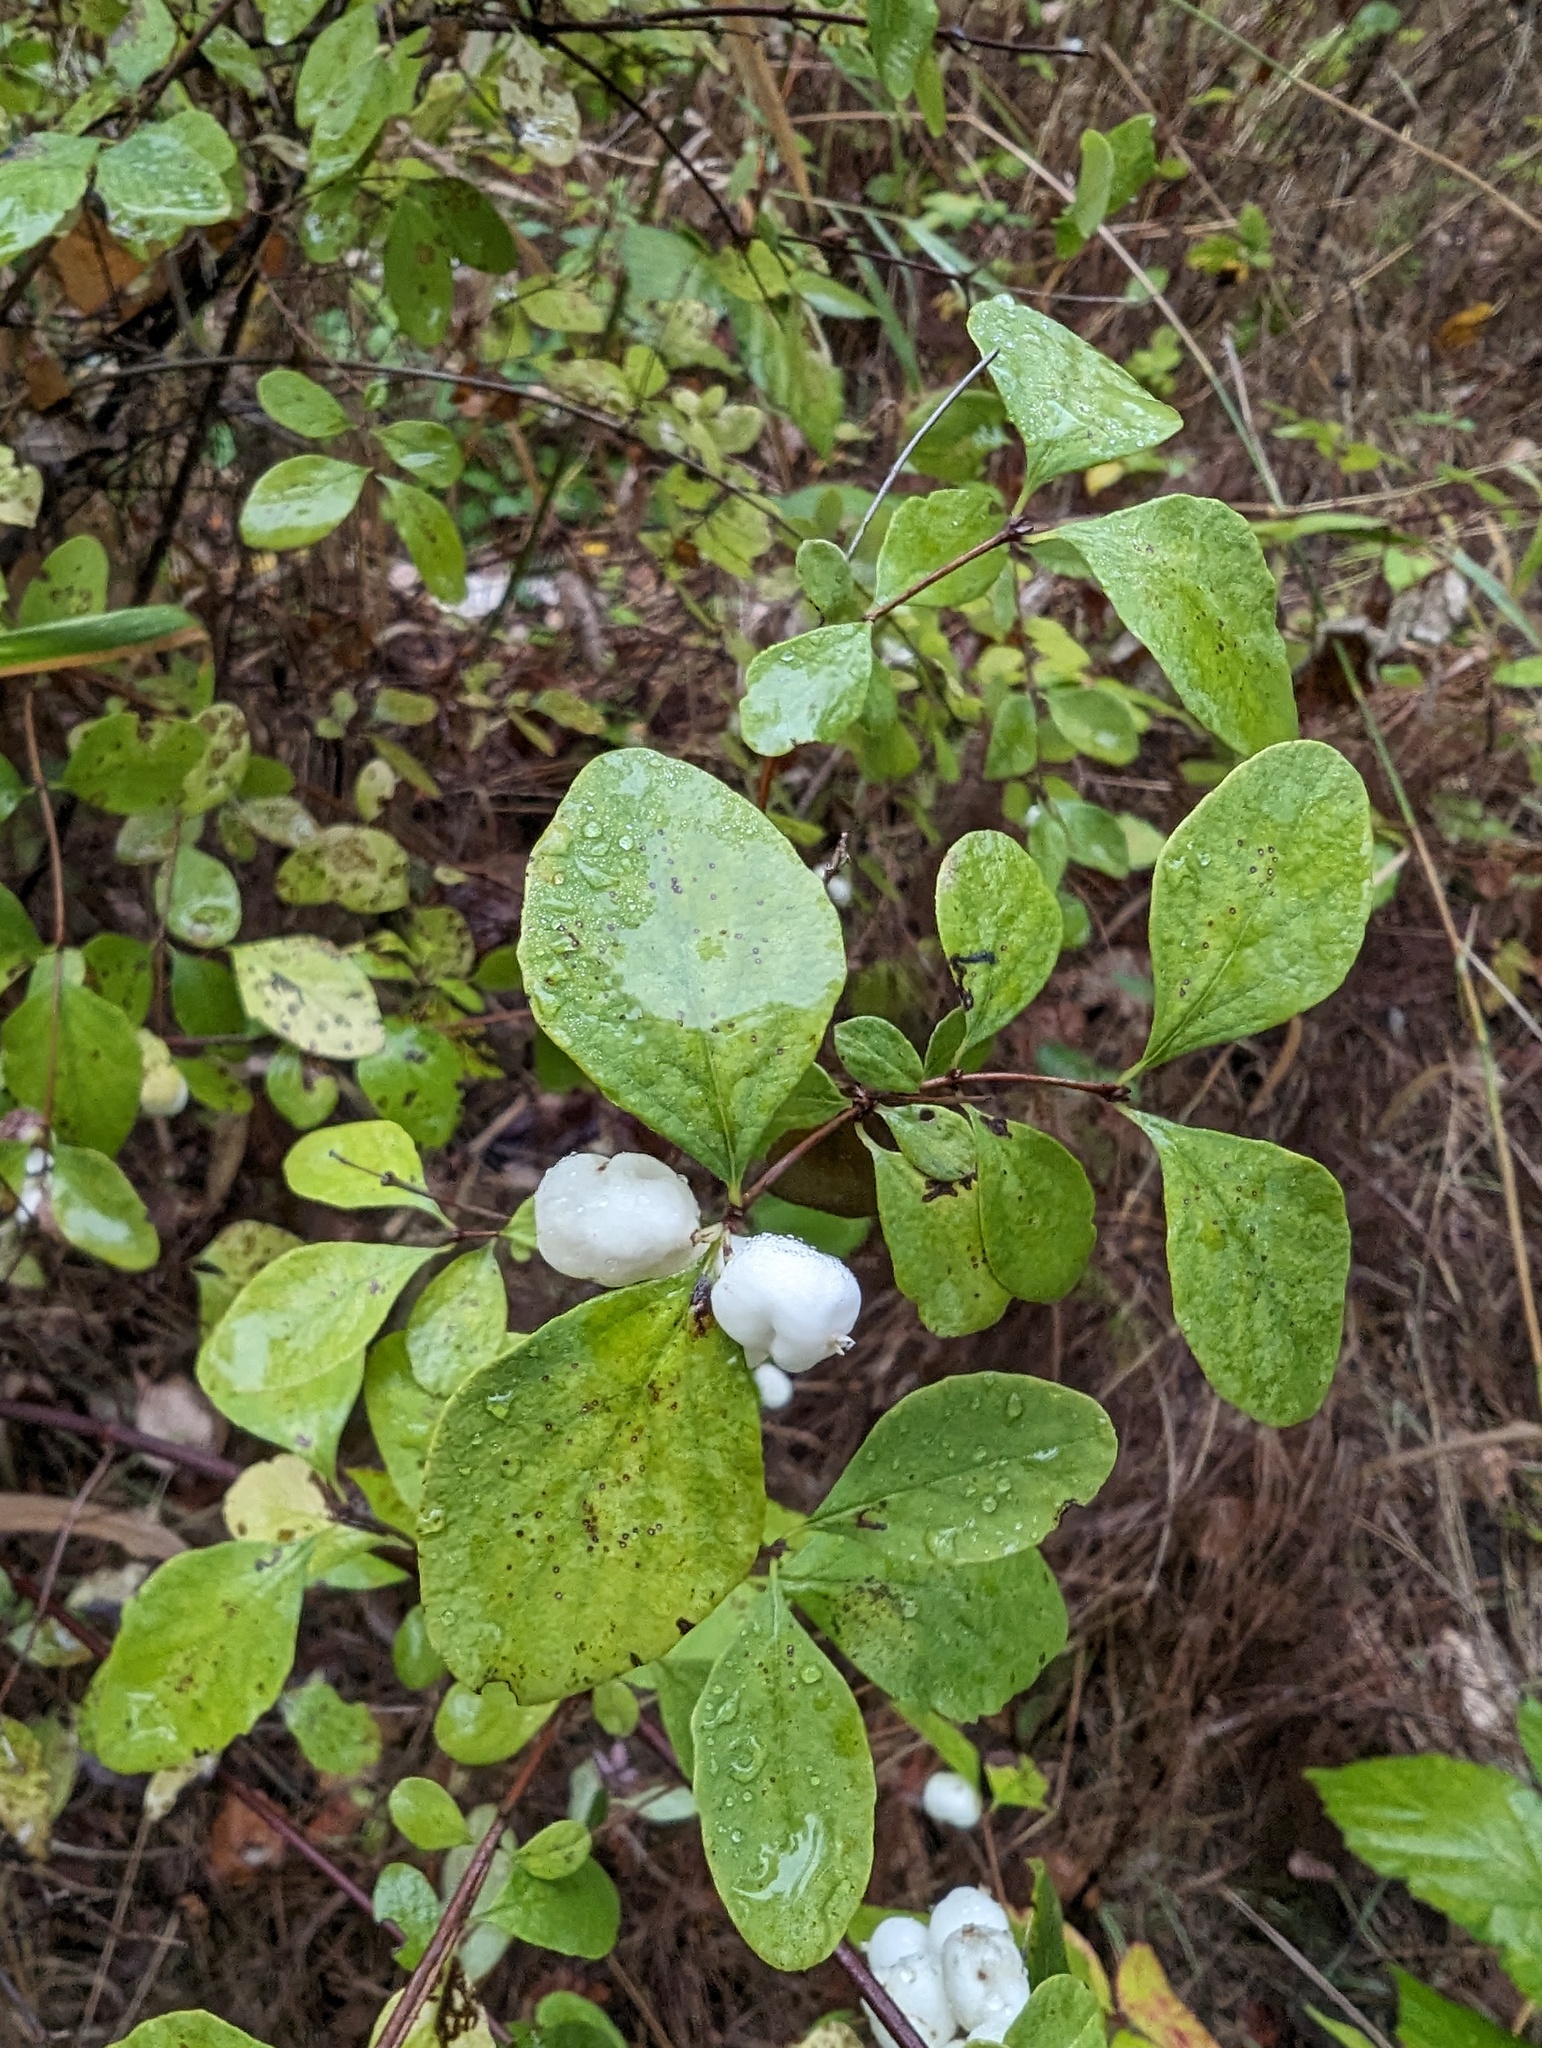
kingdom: Plantae
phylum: Tracheophyta
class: Magnoliopsida
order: Dipsacales
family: Caprifoliaceae
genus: Symphoricarpos
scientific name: Symphoricarpos albus
